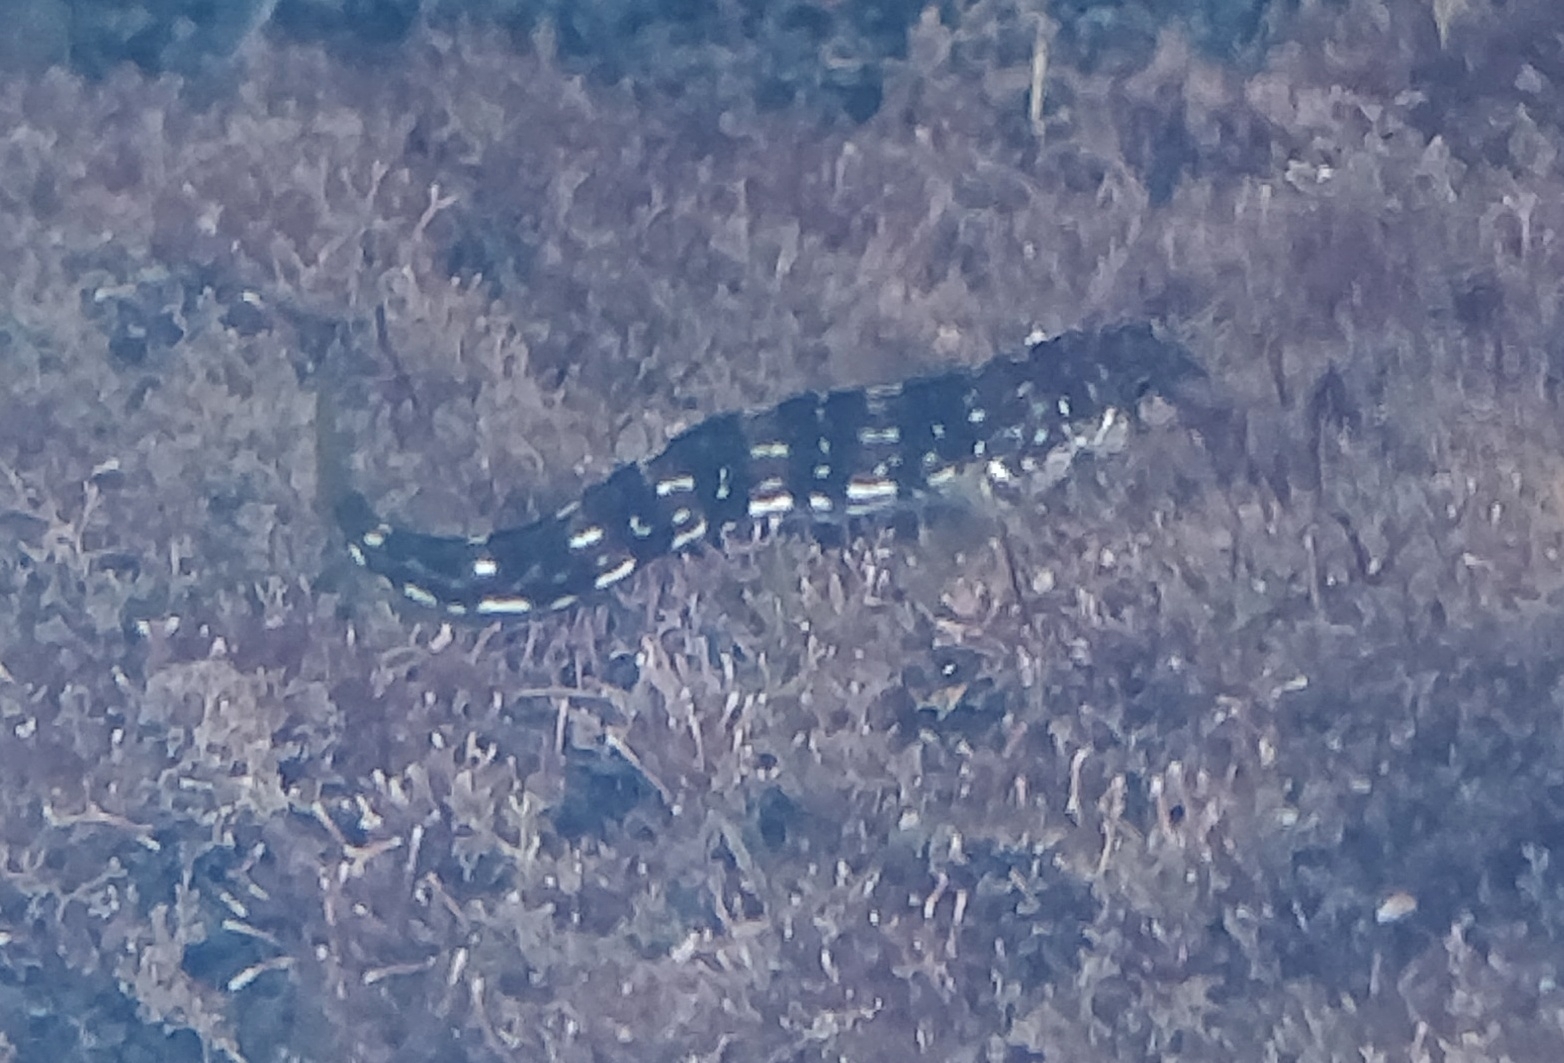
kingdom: Animalia
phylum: Chordata
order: Perciformes
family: Blenniidae
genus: Microlipophrys
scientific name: Microlipophrys velifer
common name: Sailfin blenny
